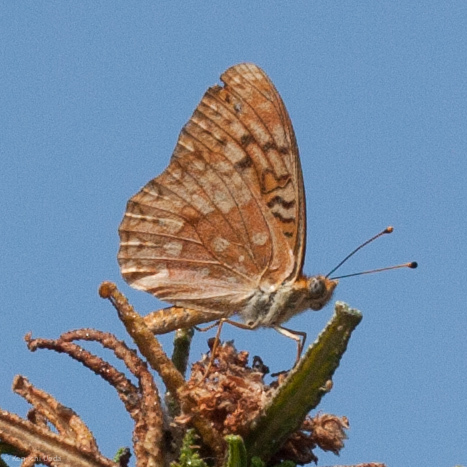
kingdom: Animalia
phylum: Arthropoda
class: Insecta
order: Lepidoptera
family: Nymphalidae
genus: Speyeria
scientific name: Speyeria adiaste
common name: Unsilvered fritillary
